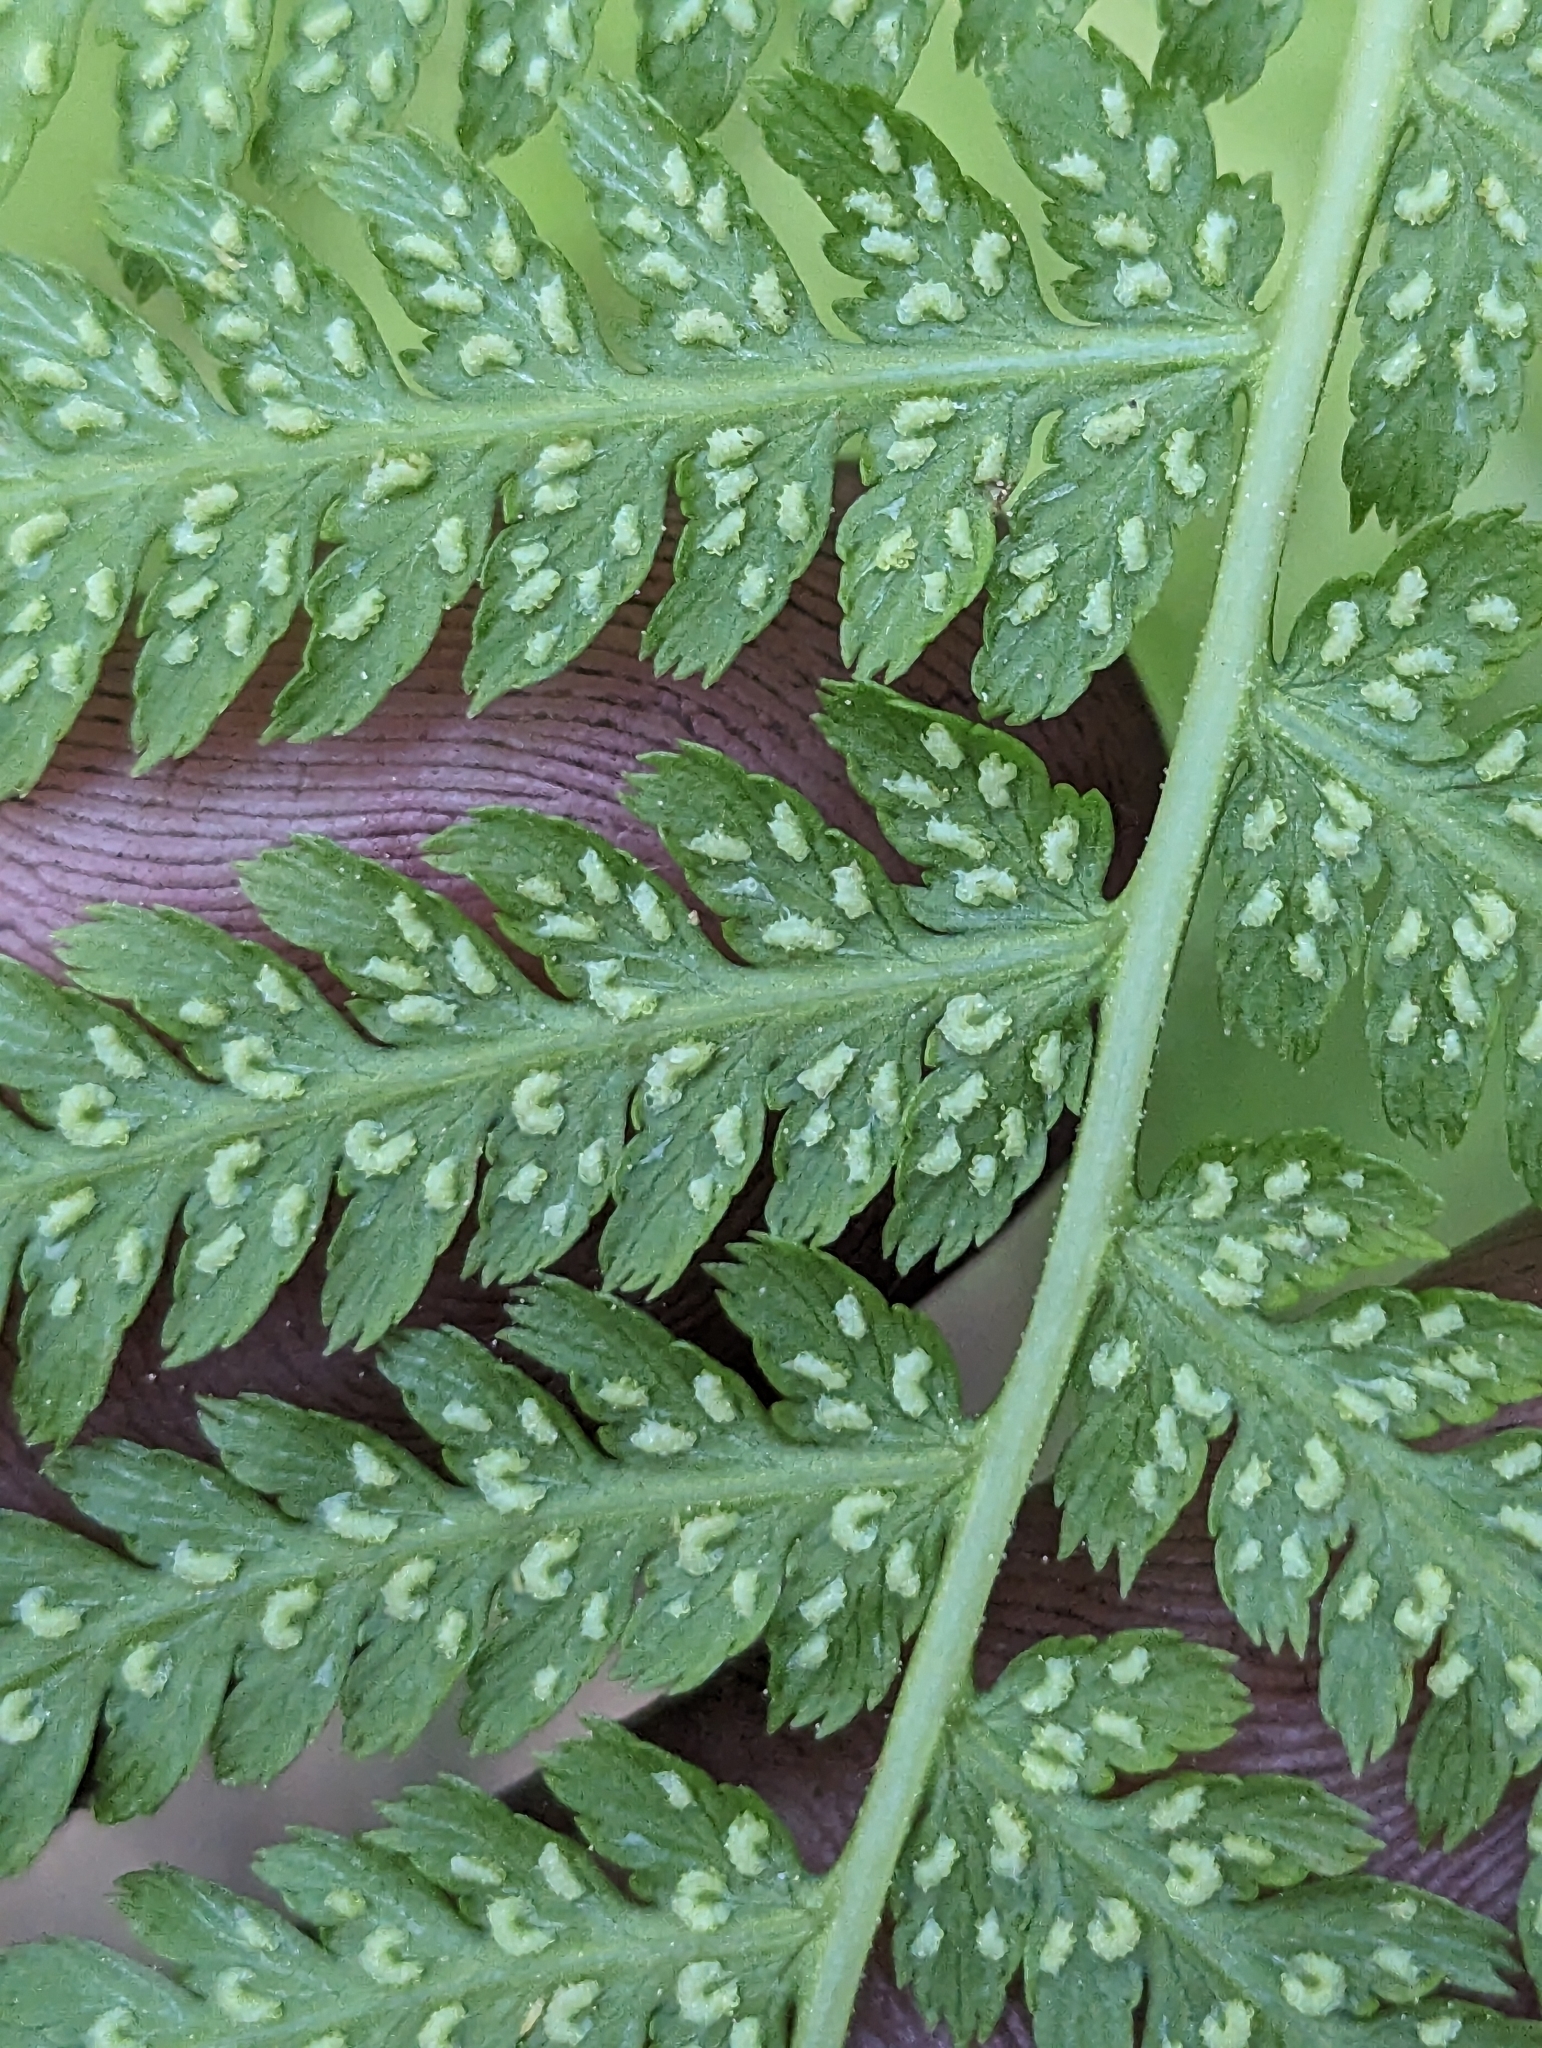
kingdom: Plantae
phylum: Tracheophyta
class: Polypodiopsida
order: Polypodiales
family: Athyriaceae
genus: Athyrium
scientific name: Athyrium filix-femina
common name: Lady fern
